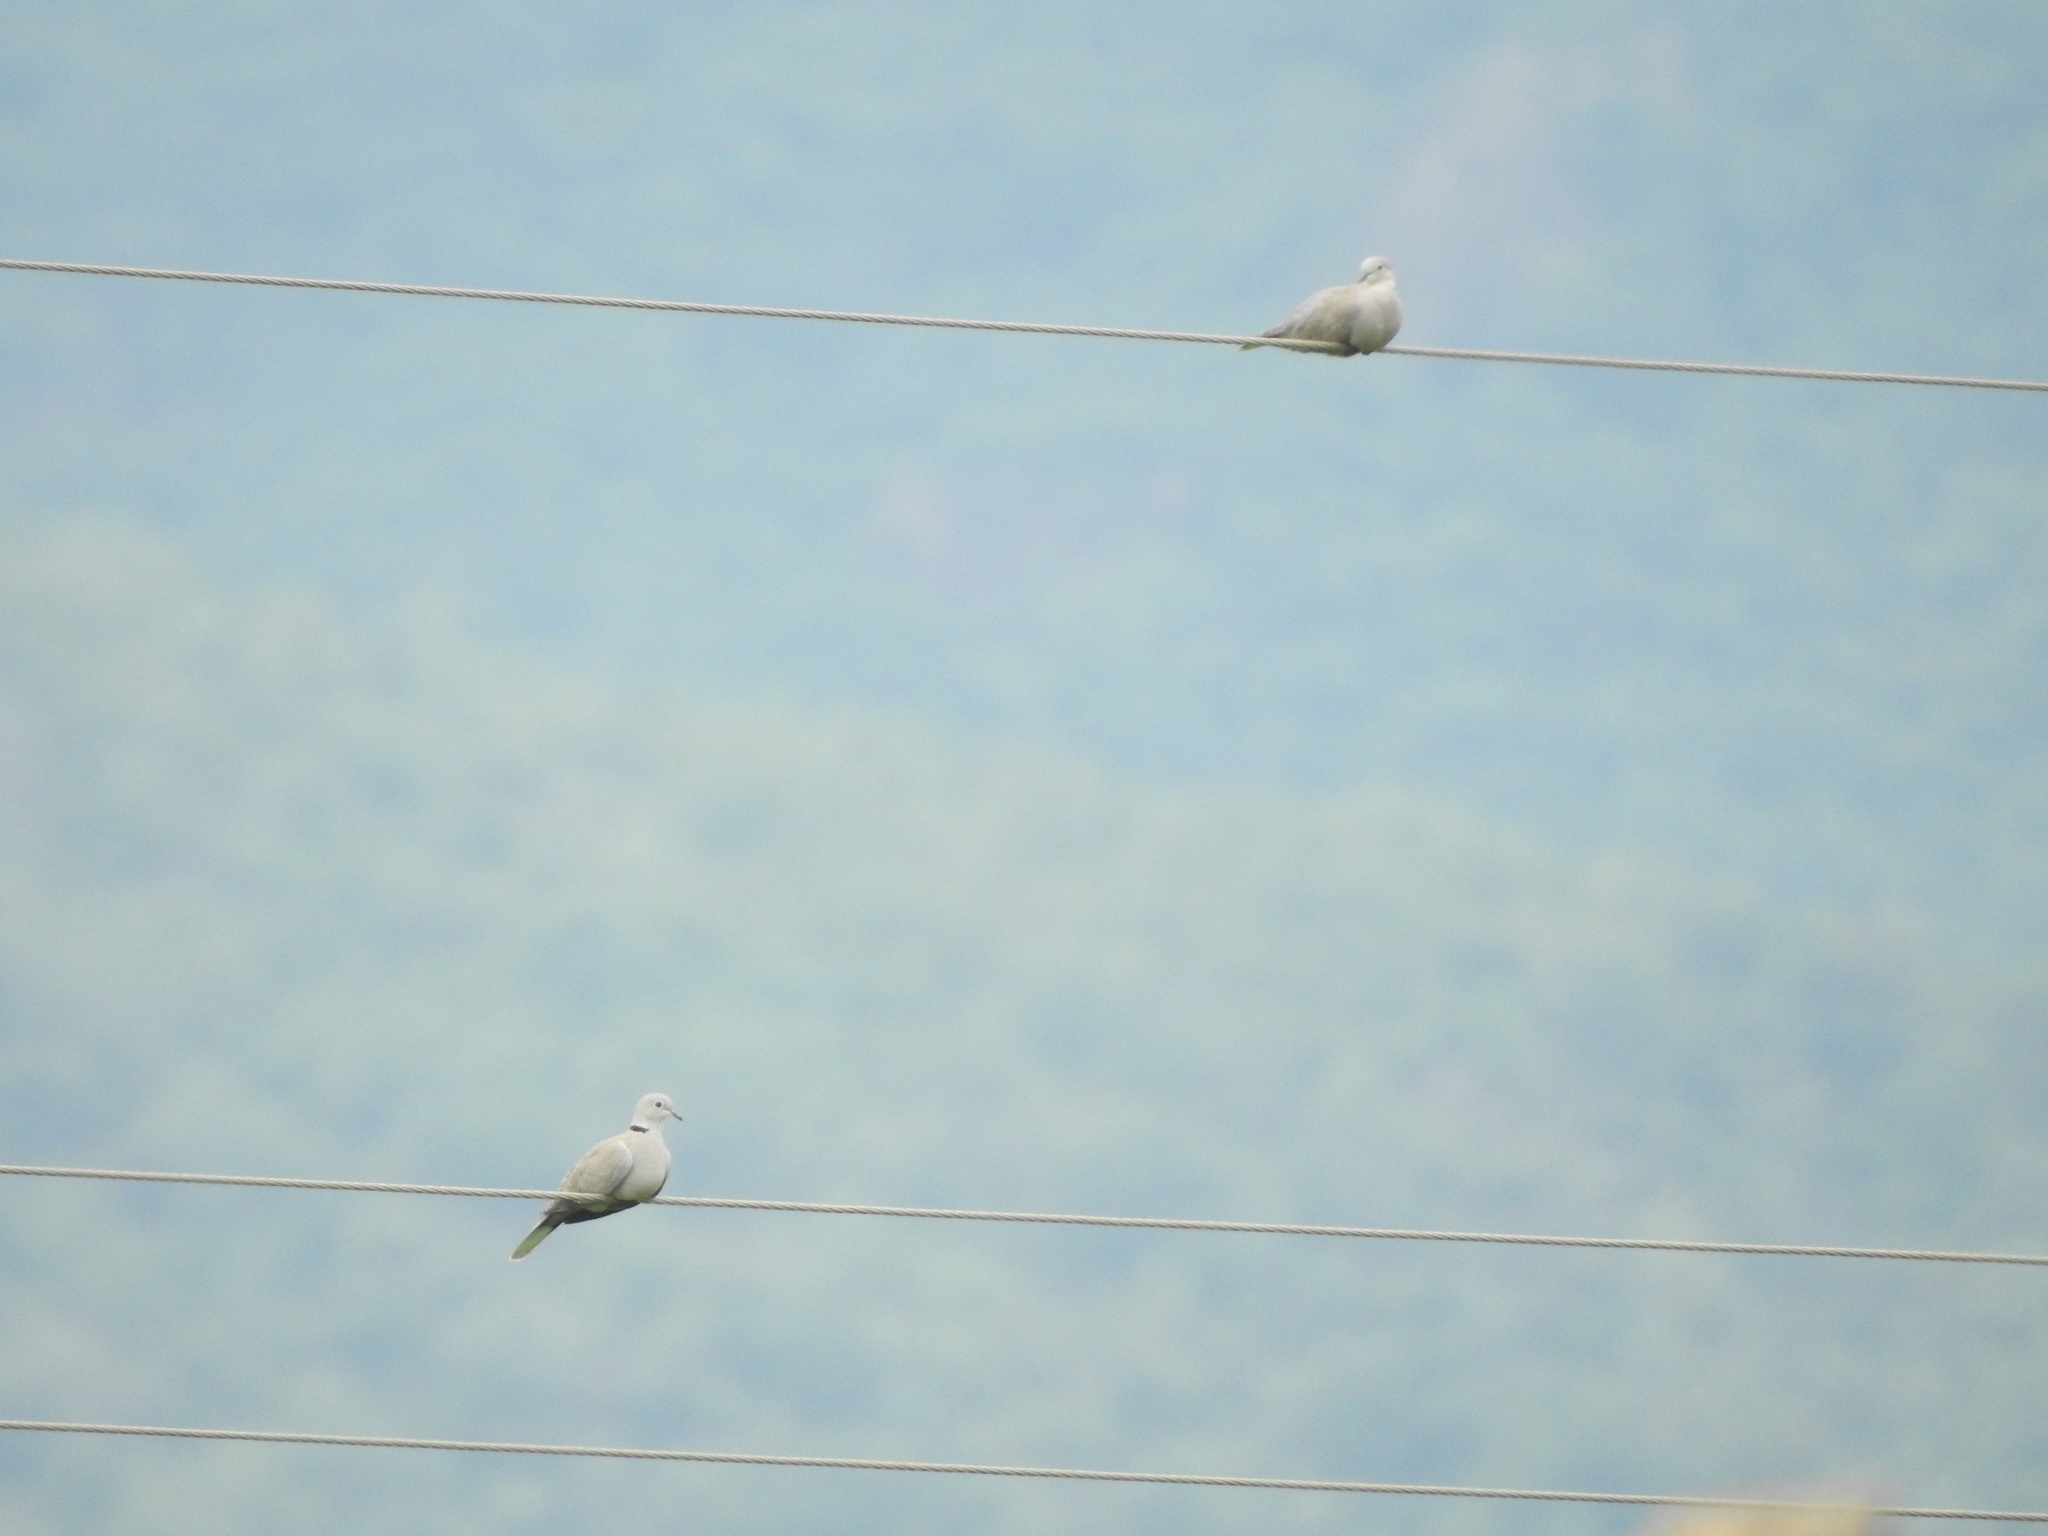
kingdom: Animalia
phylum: Chordata
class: Aves
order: Columbiformes
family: Columbidae
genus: Streptopelia
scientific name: Streptopelia decaocto
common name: Eurasian collared dove
